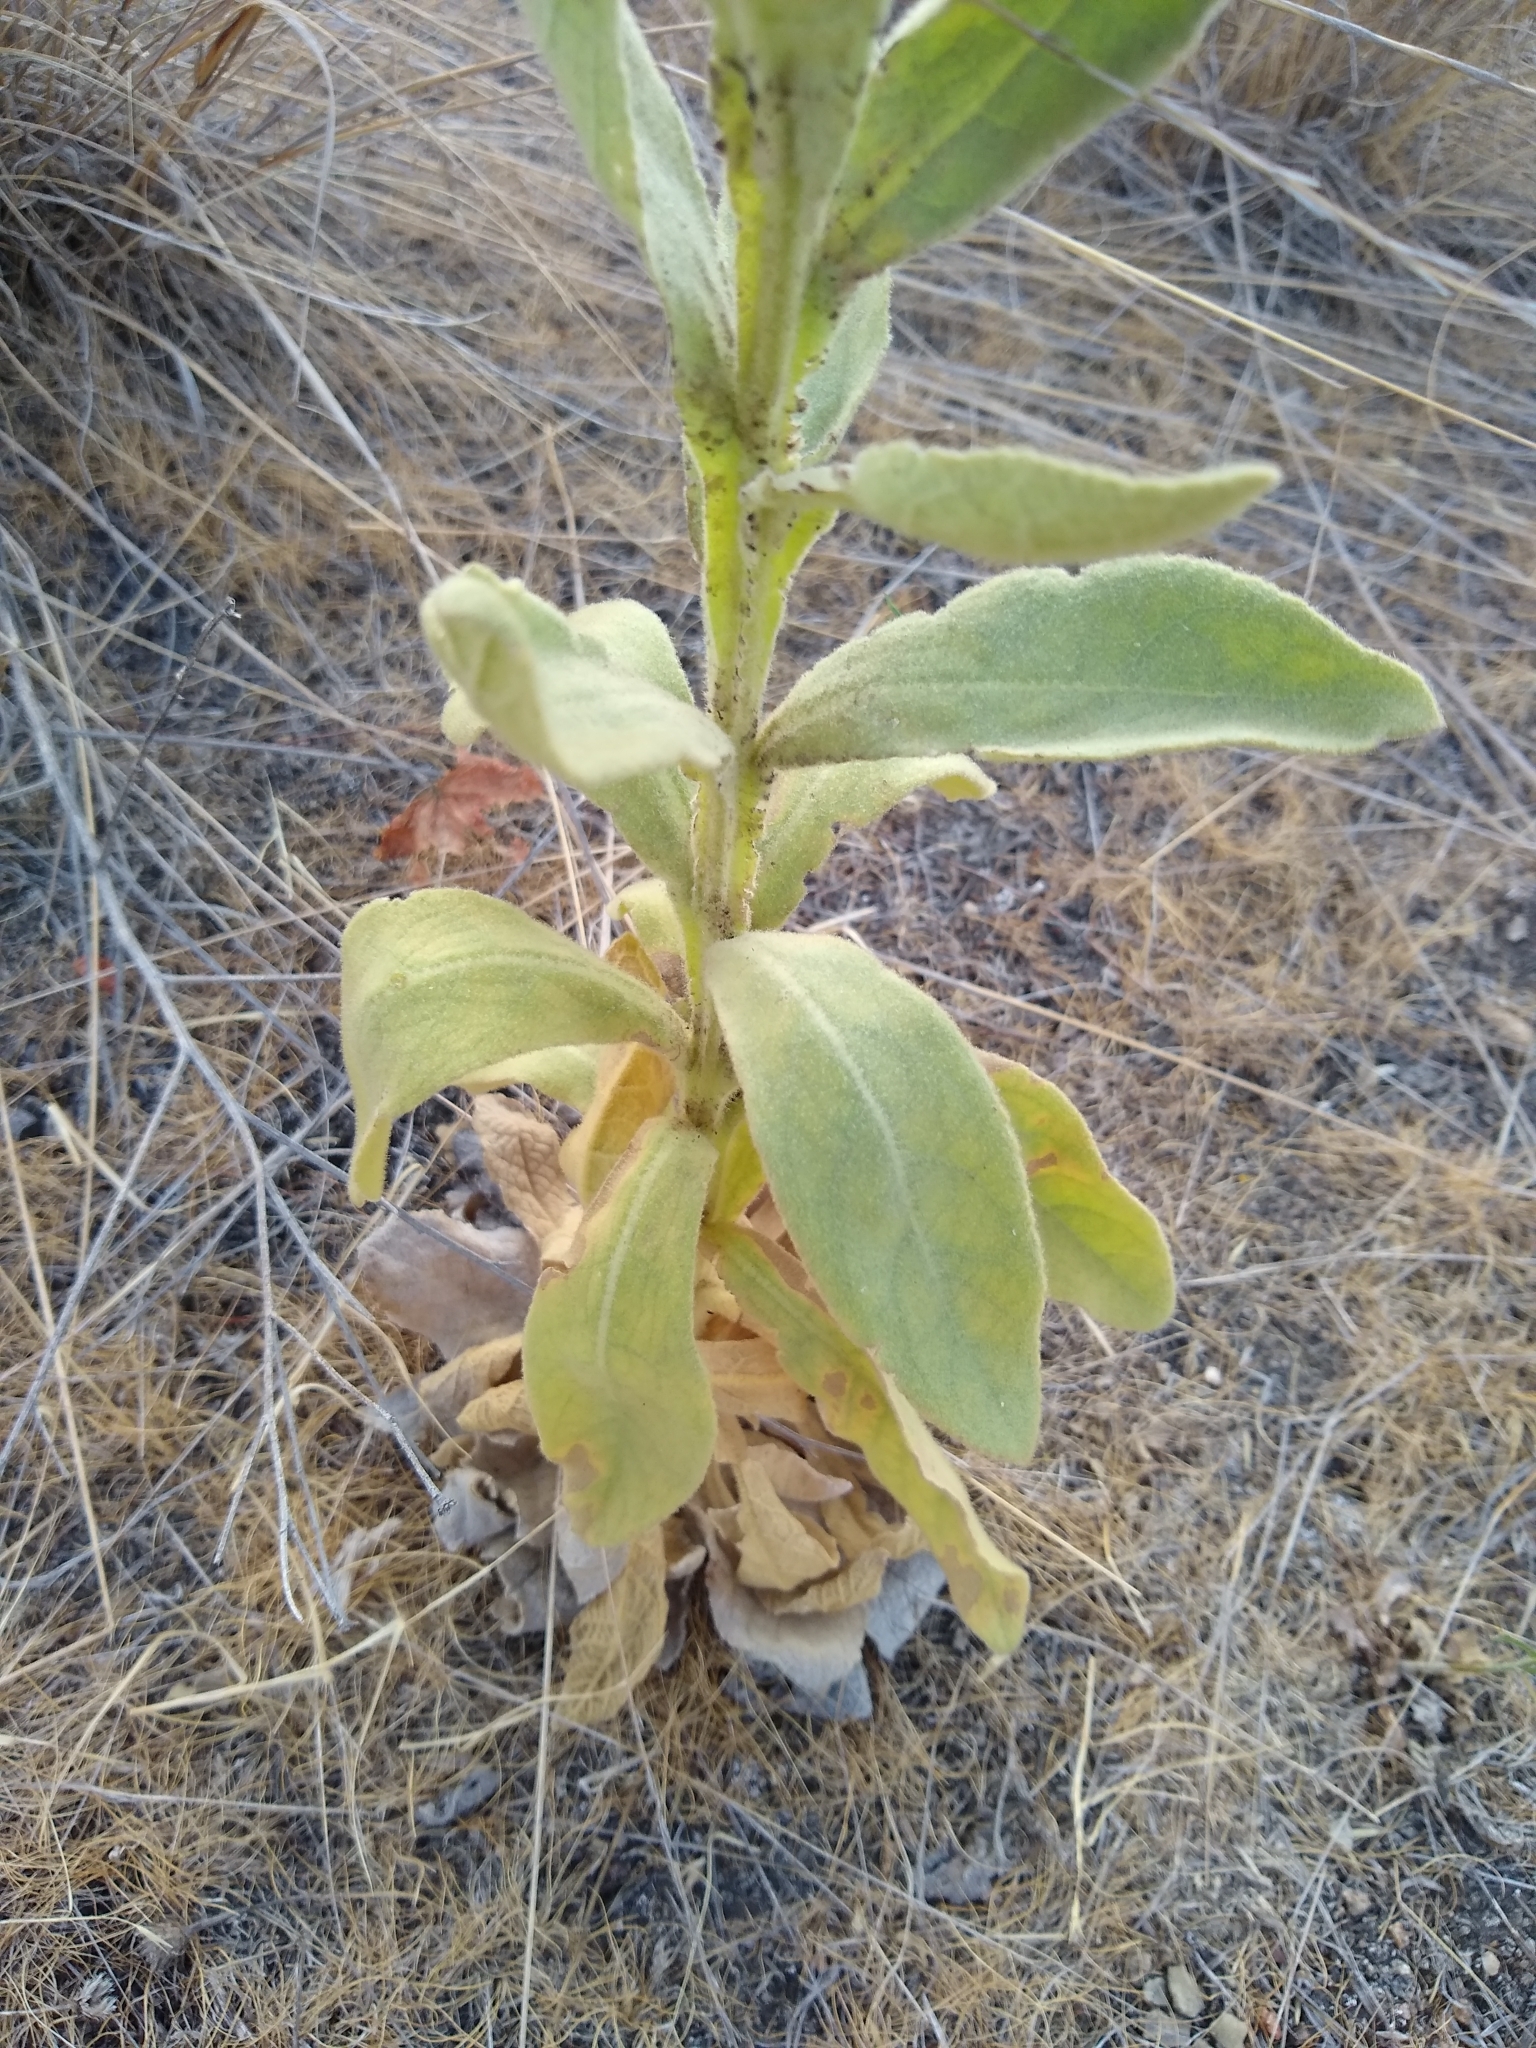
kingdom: Plantae
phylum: Tracheophyta
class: Magnoliopsida
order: Lamiales
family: Scrophulariaceae
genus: Verbascum
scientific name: Verbascum thapsus
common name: Common mullein
